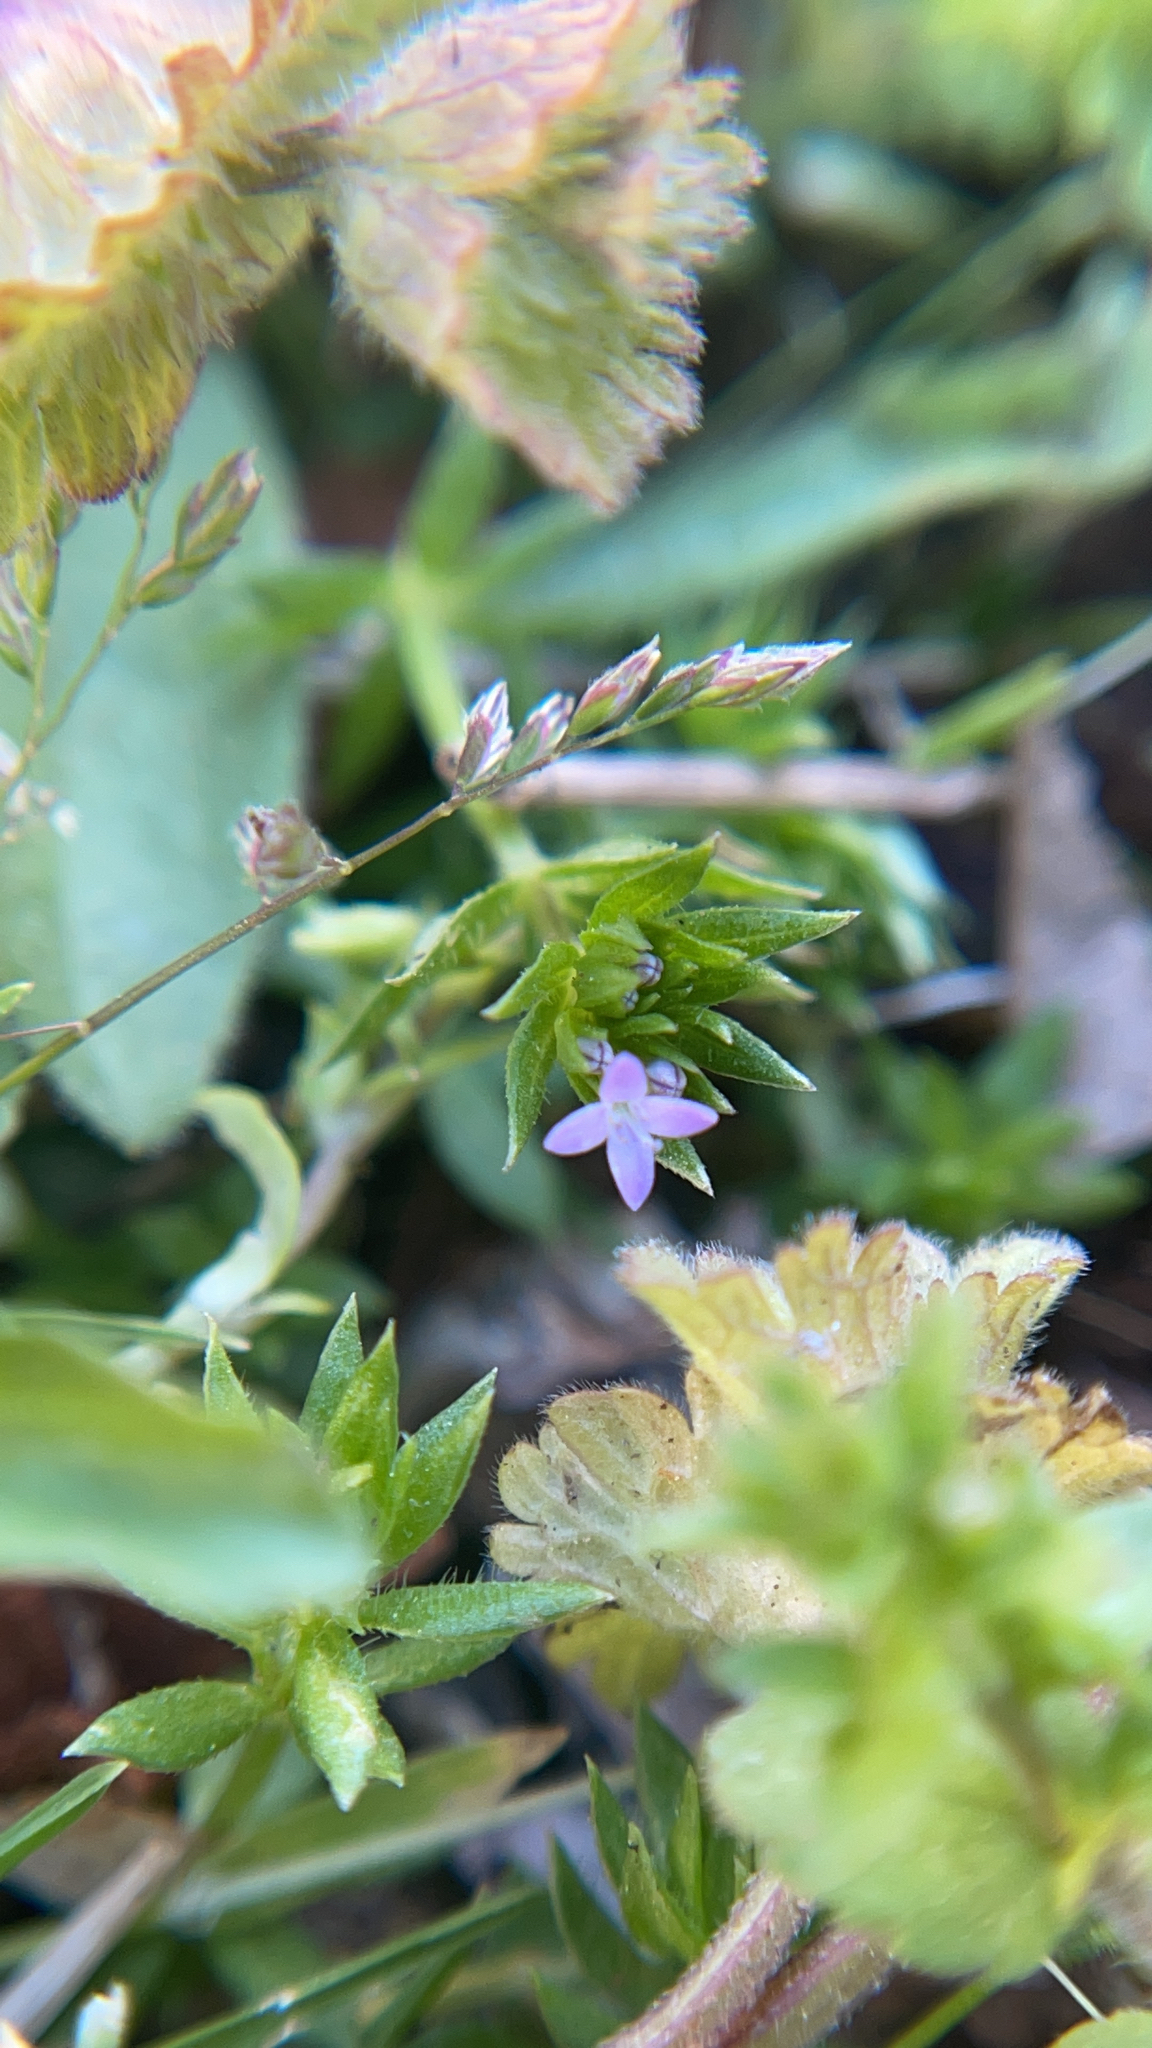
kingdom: Plantae
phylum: Tracheophyta
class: Magnoliopsida
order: Gentianales
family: Rubiaceae
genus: Sherardia
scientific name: Sherardia arvensis
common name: Field madder
